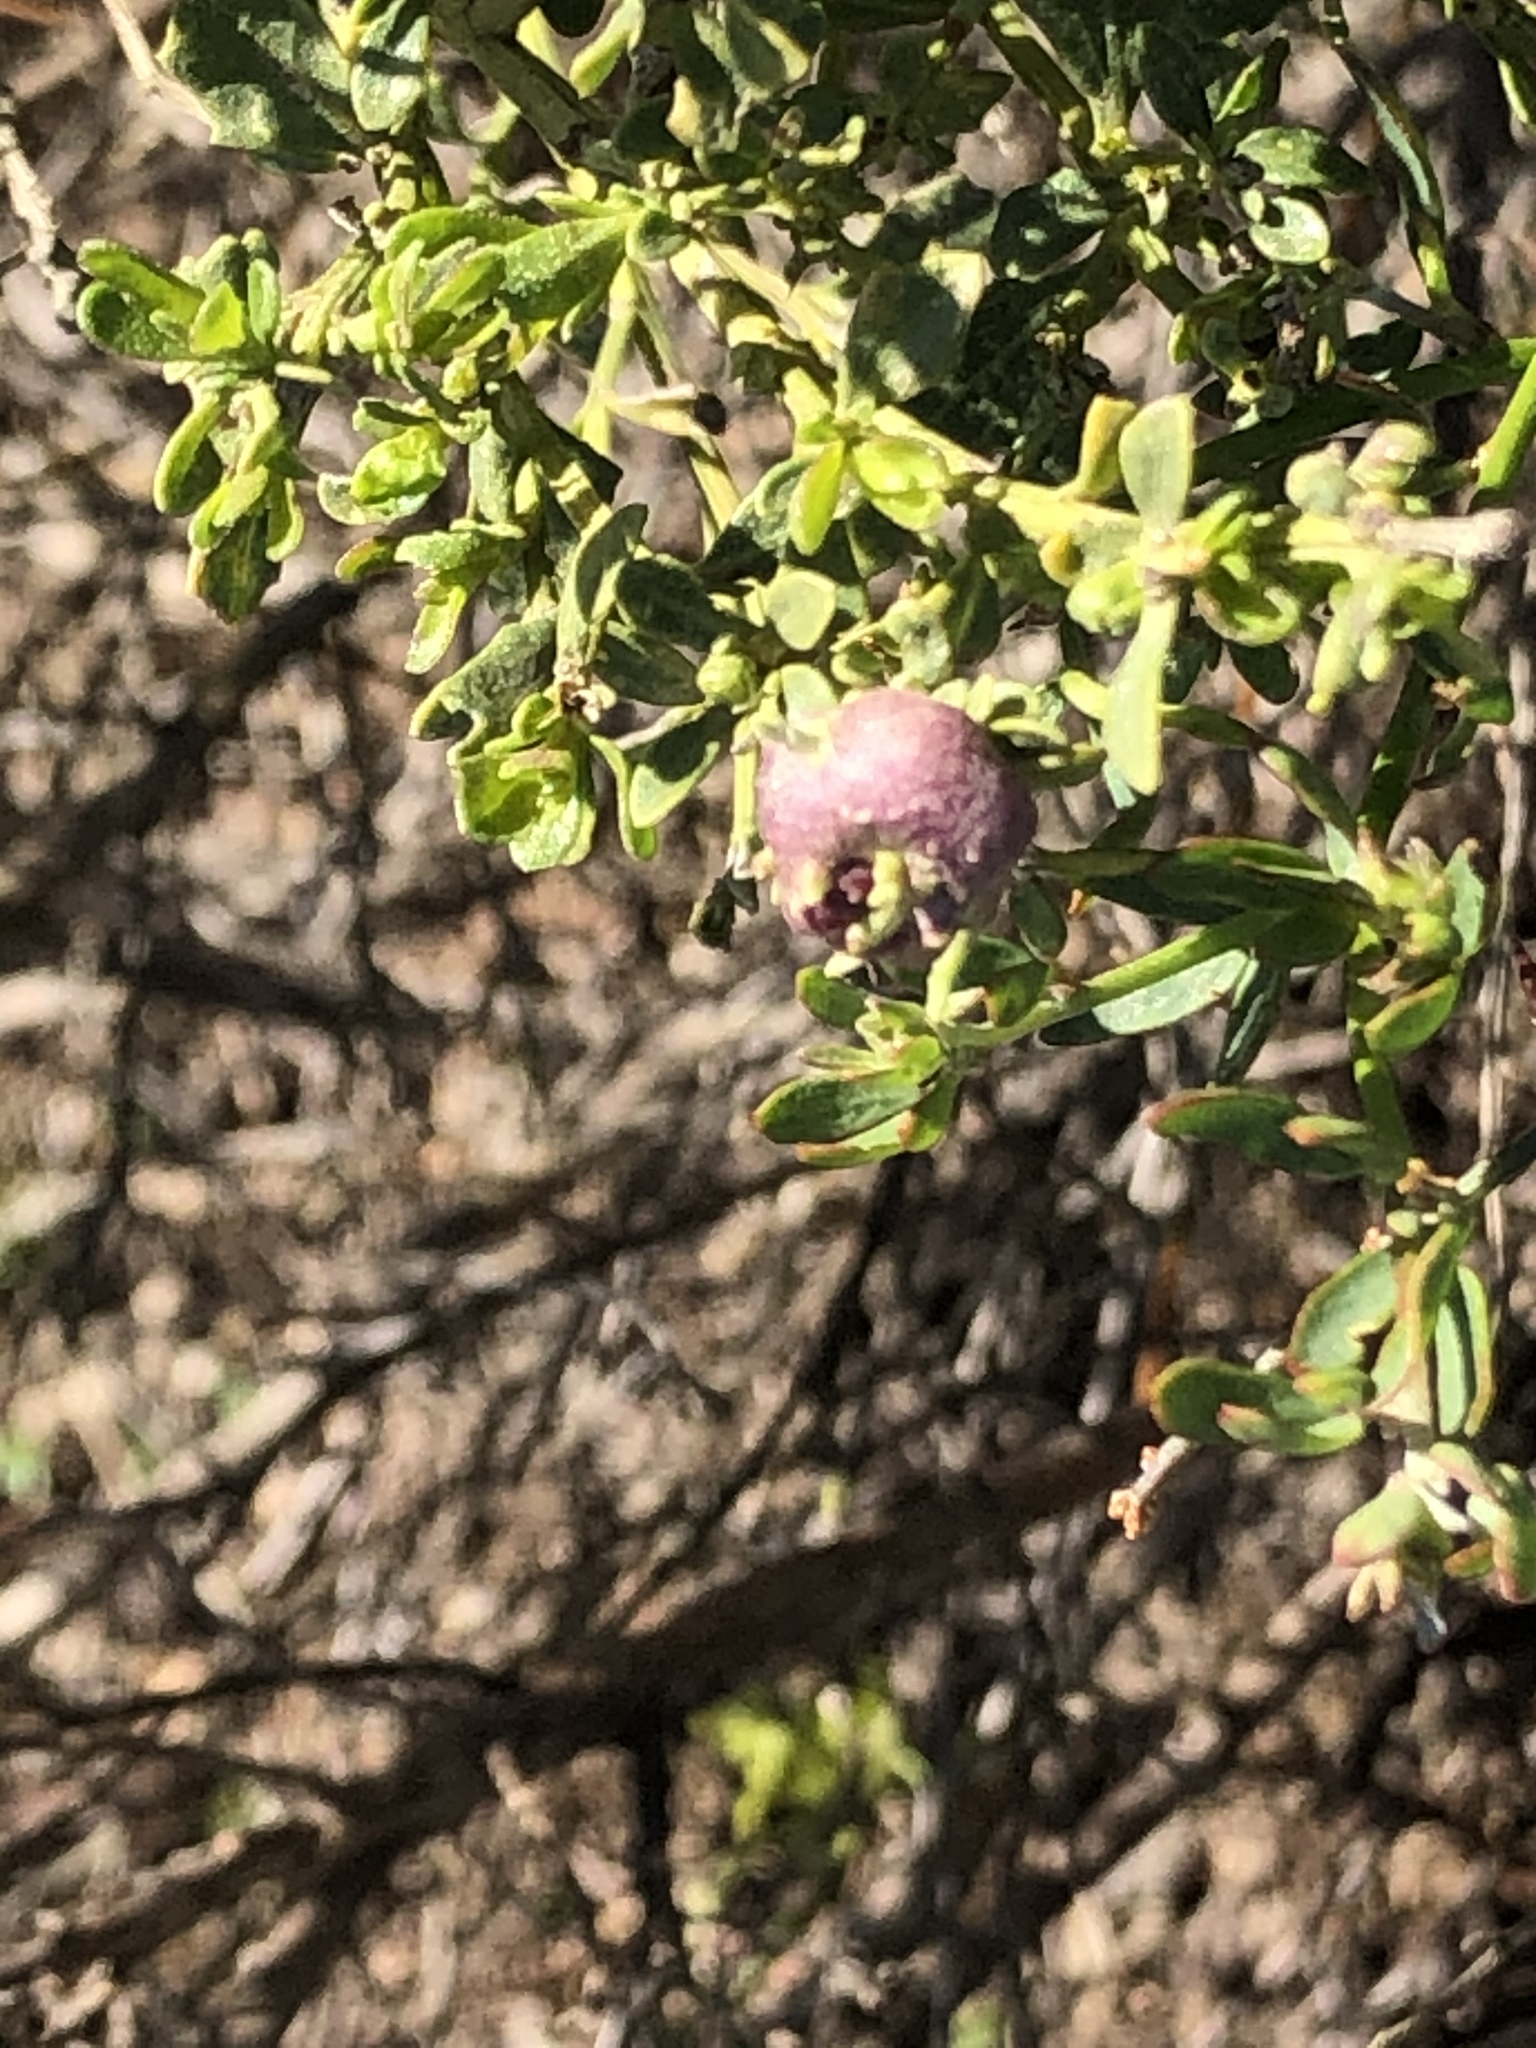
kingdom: Animalia
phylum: Arthropoda
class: Insecta
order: Diptera
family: Cecidomyiidae
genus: Rhopalomyia
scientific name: Rhopalomyia californica
